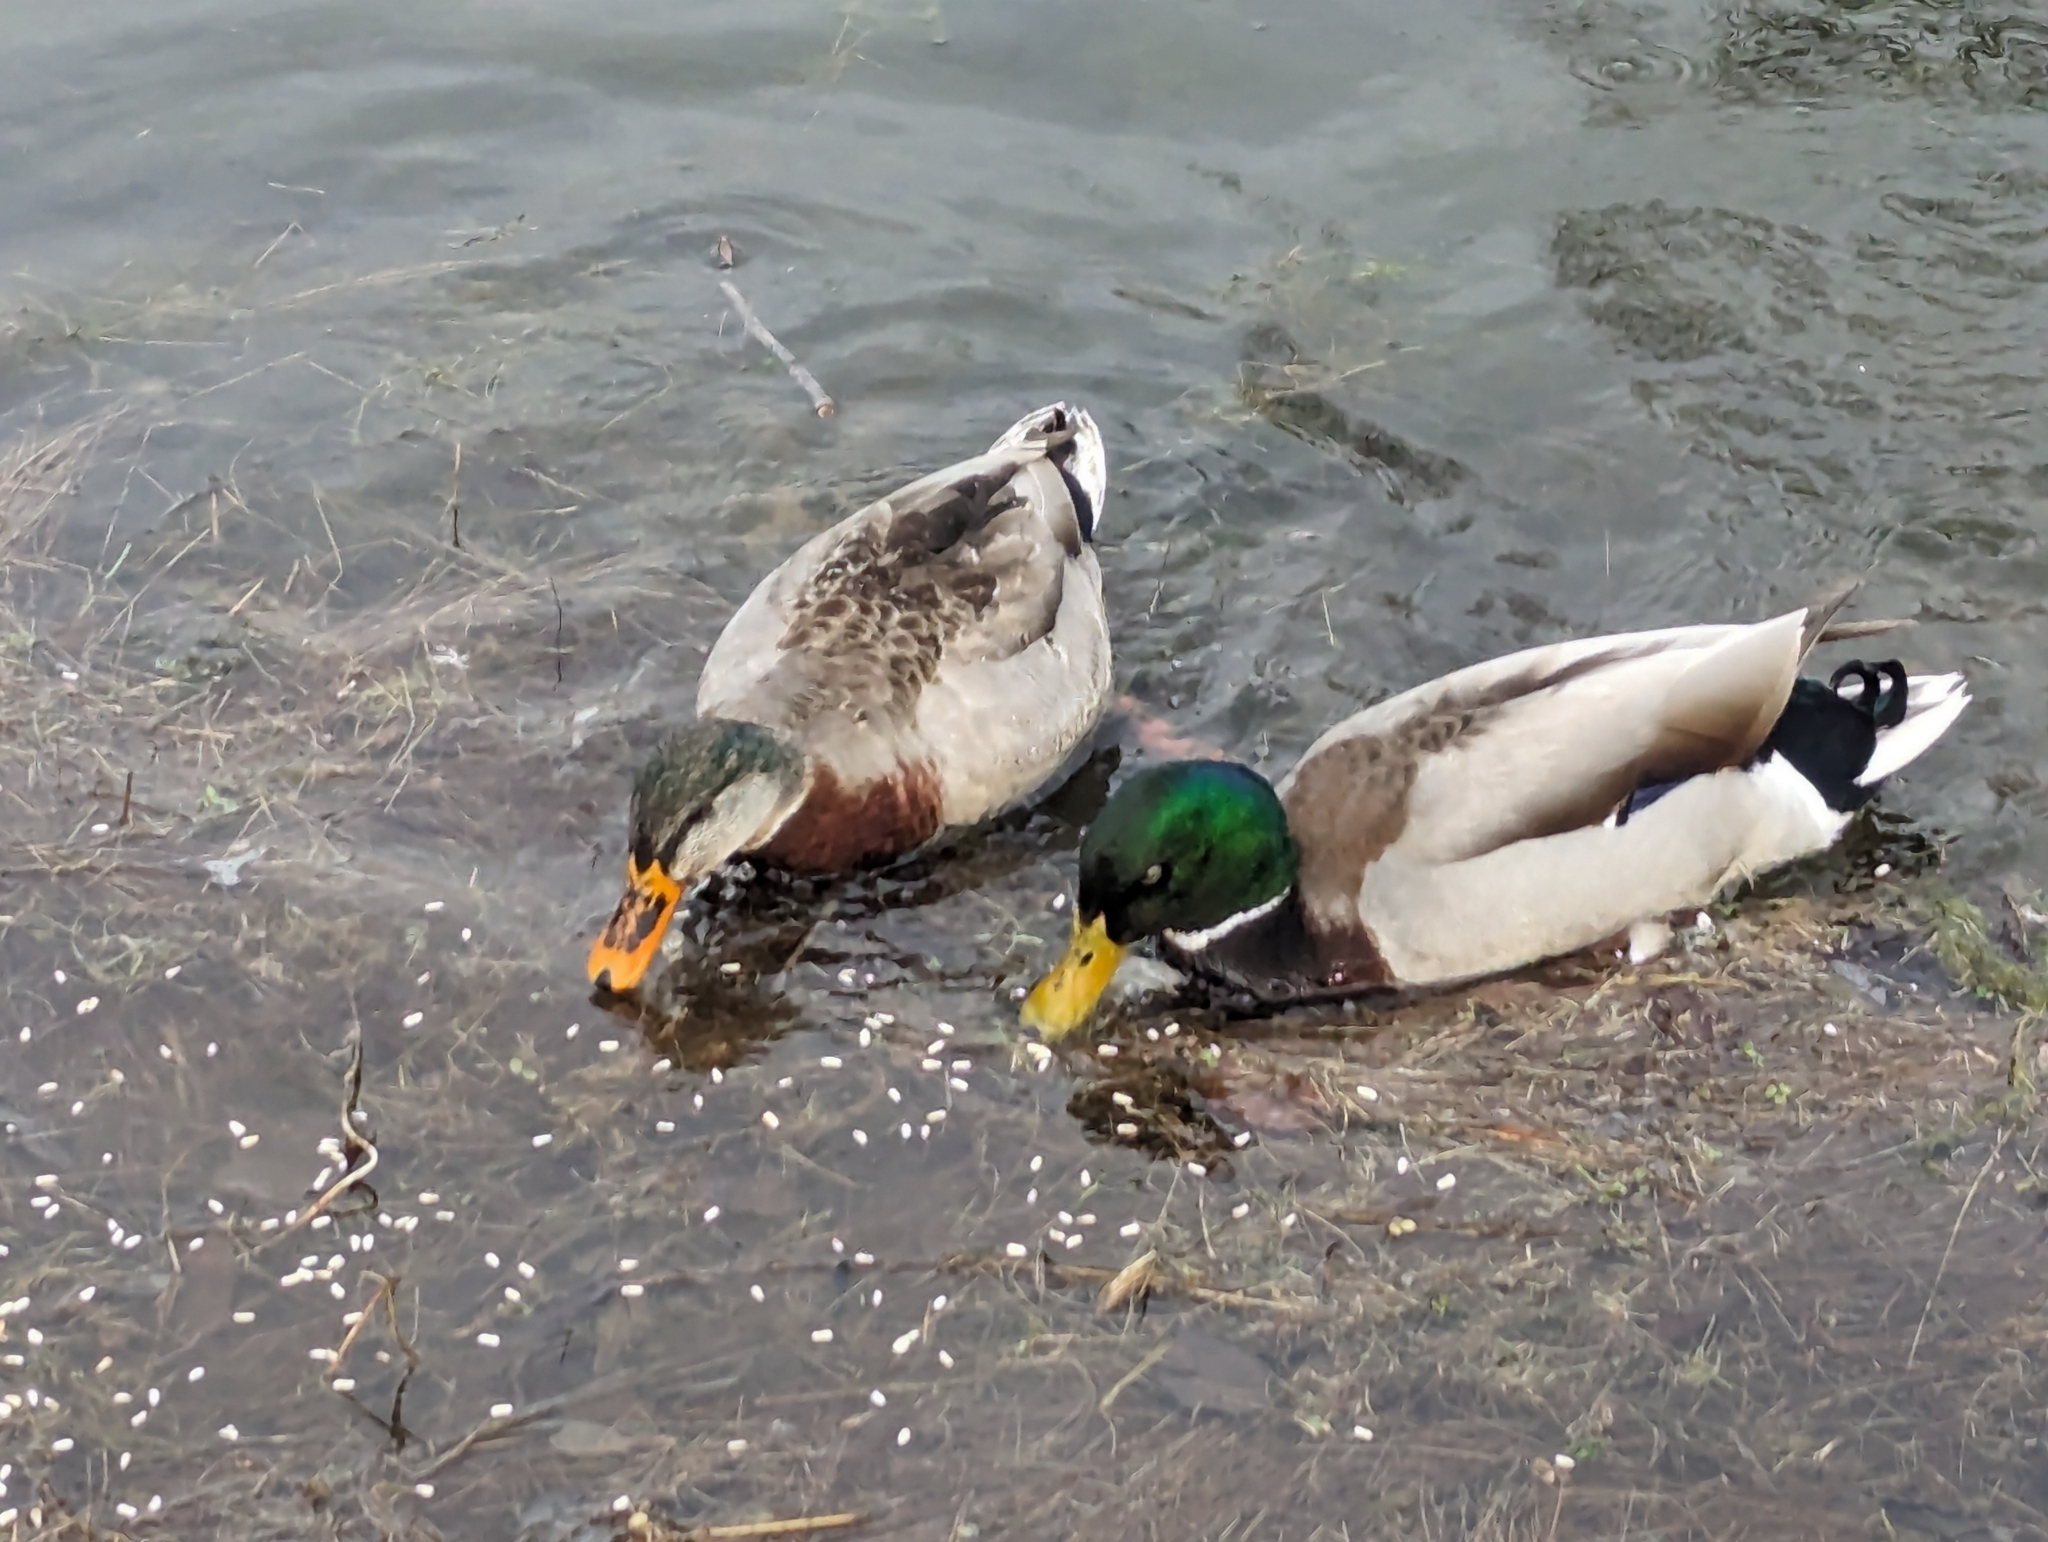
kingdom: Animalia
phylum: Chordata
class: Aves
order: Anseriformes
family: Anatidae
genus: Anas
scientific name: Anas platyrhynchos
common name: Mallard
